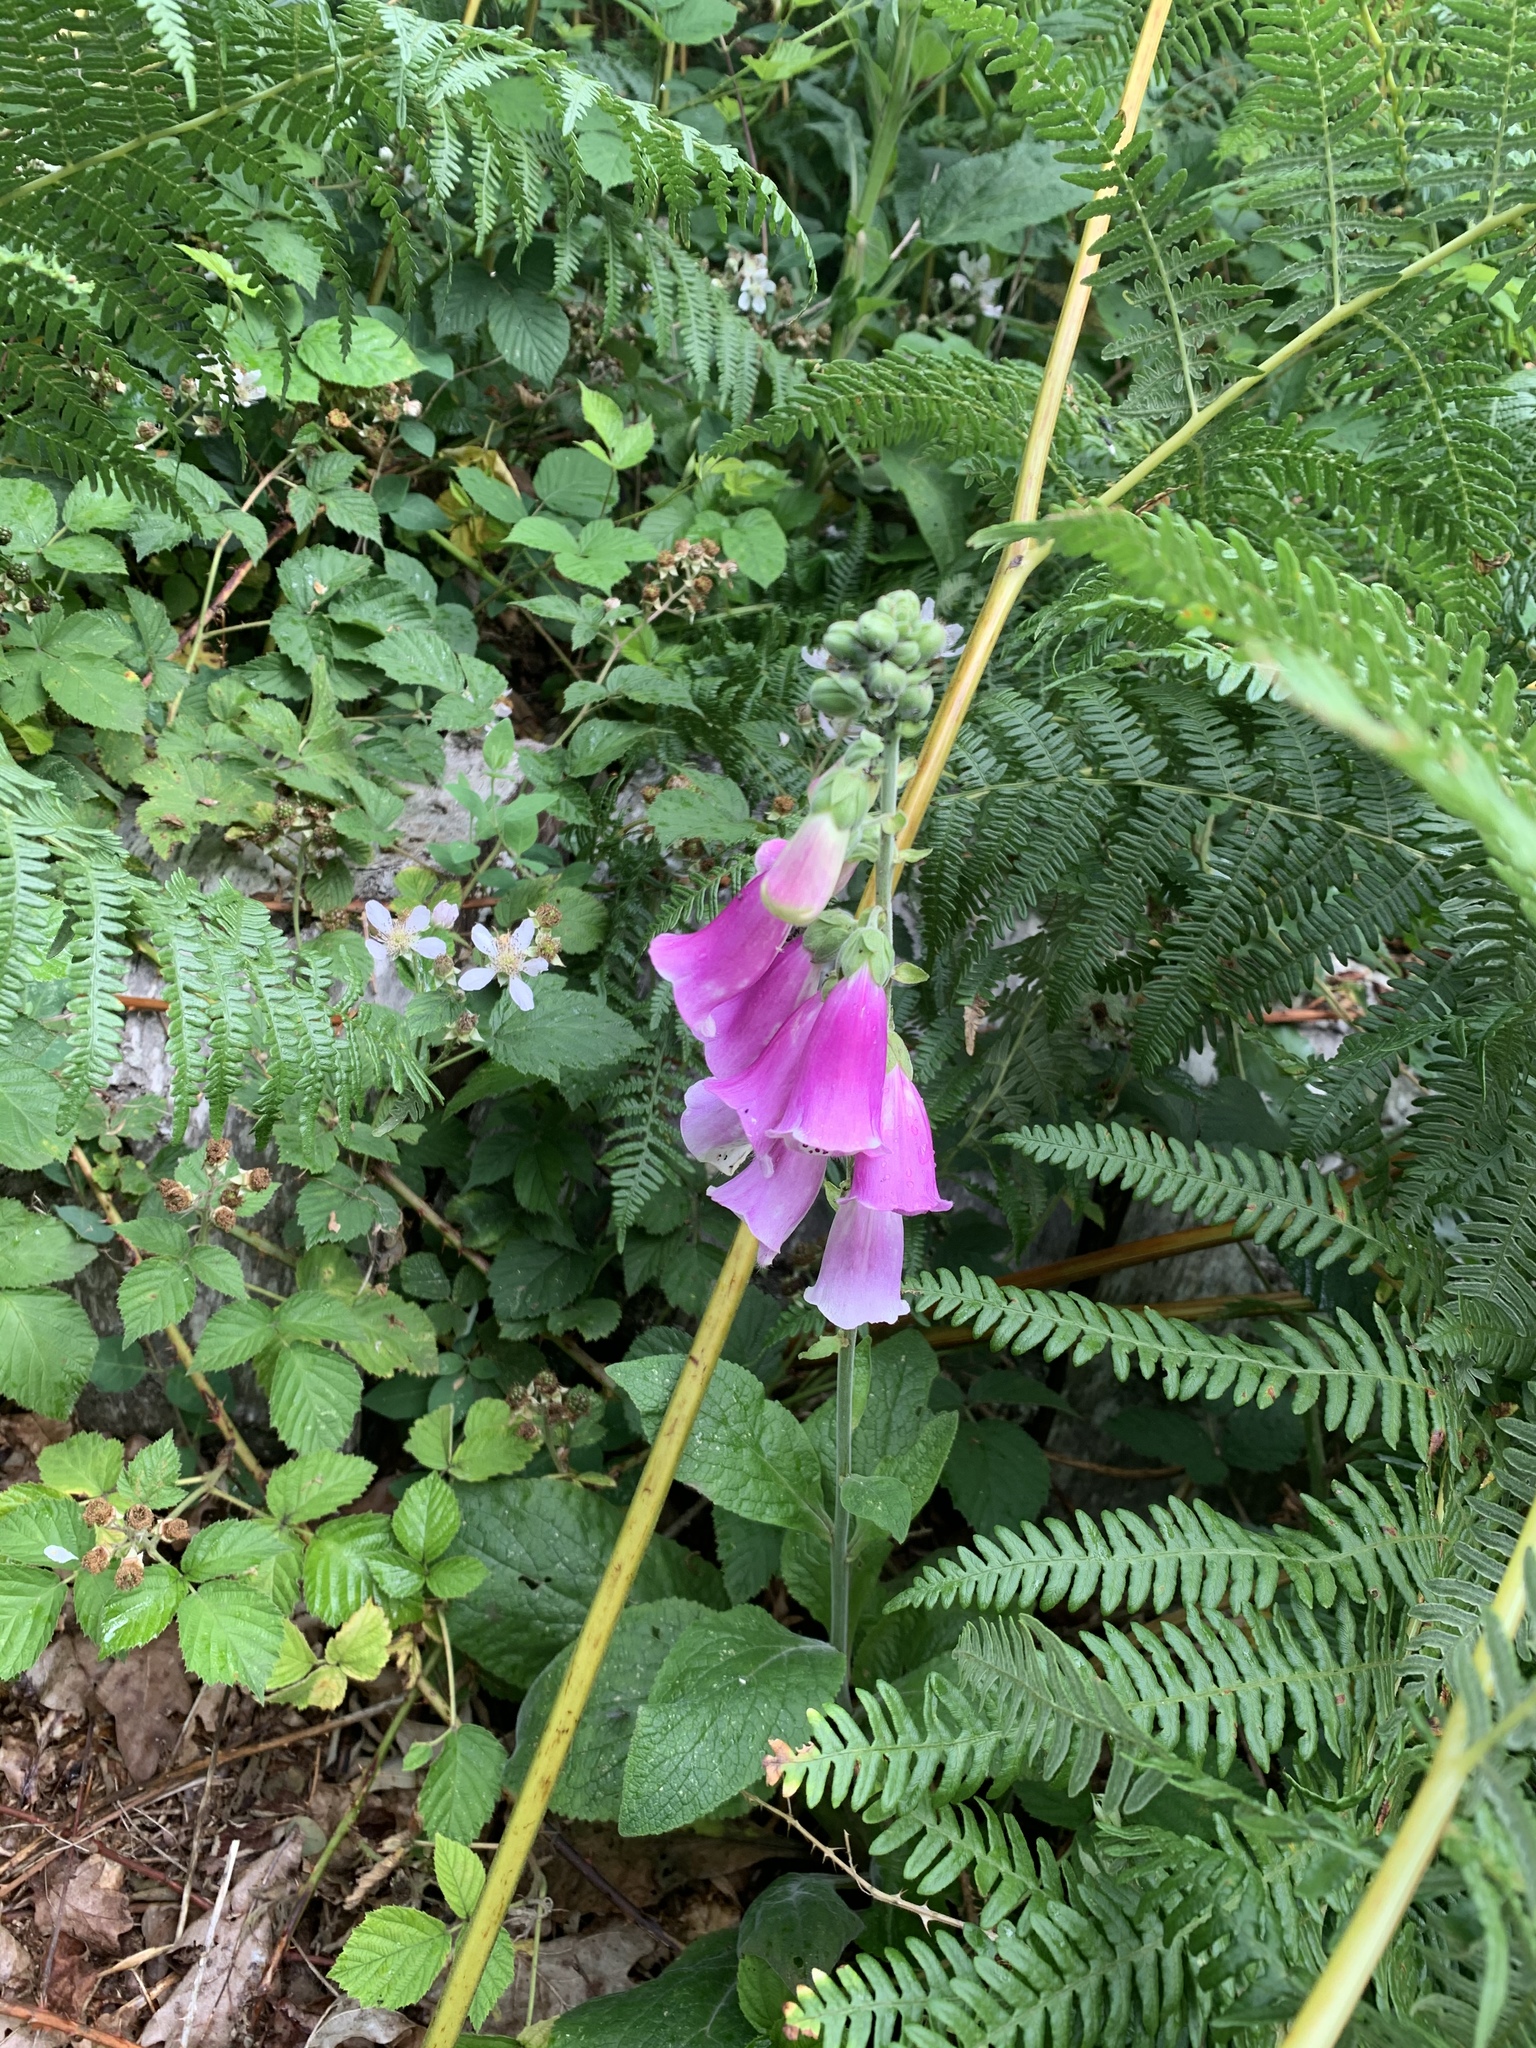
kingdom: Plantae
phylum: Tracheophyta
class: Magnoliopsida
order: Lamiales
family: Plantaginaceae
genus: Digitalis
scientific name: Digitalis purpurea
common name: Foxglove
